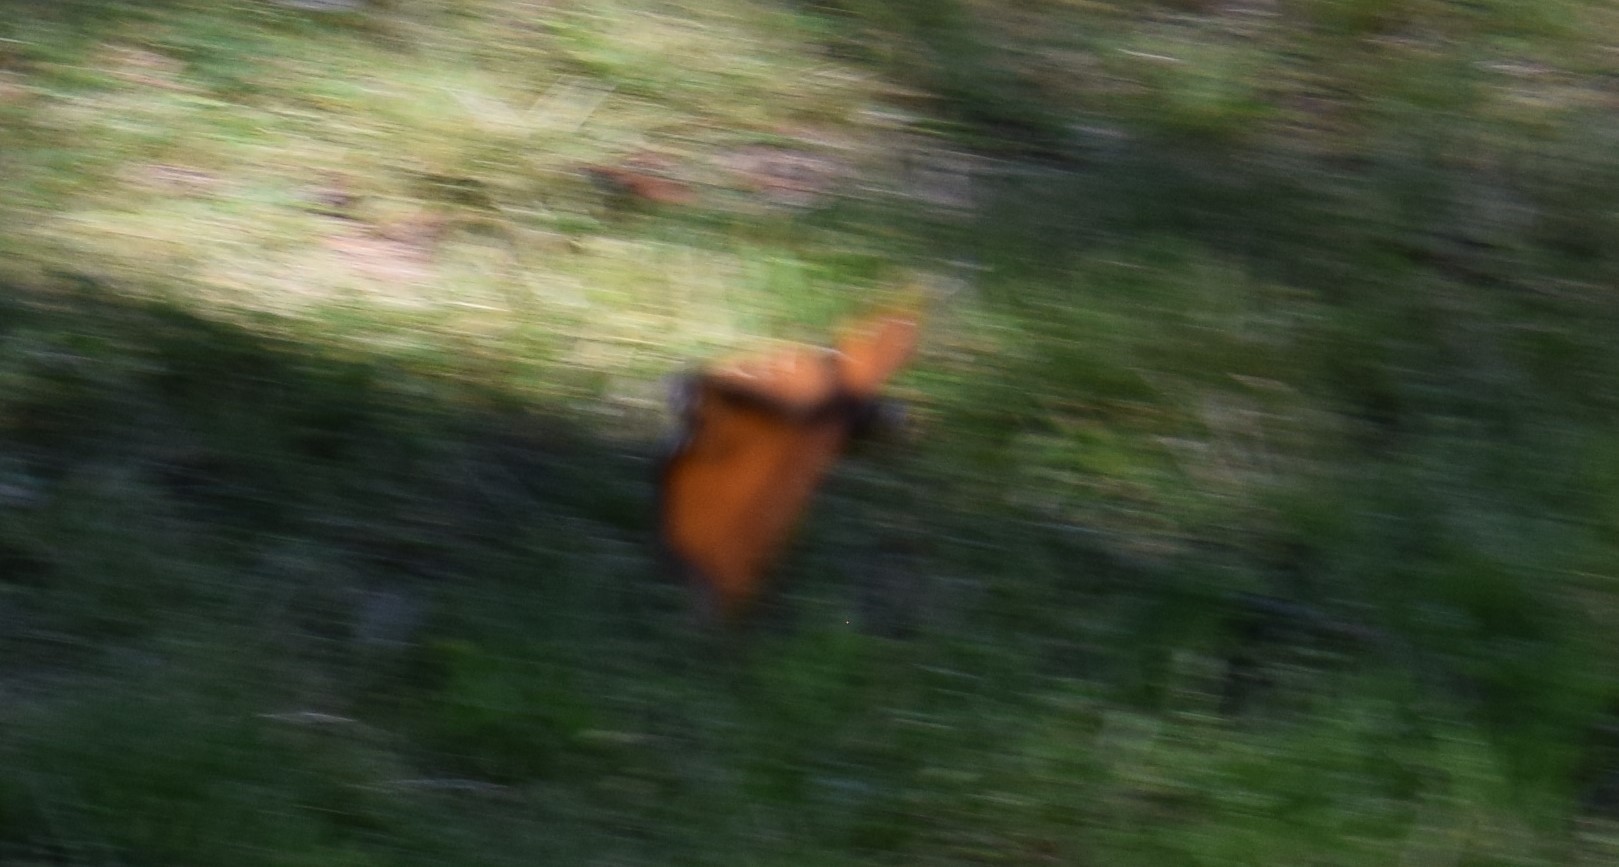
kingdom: Animalia
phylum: Arthropoda
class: Insecta
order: Lepidoptera
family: Nymphalidae
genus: Danaus
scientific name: Danaus plexippus
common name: Monarch
